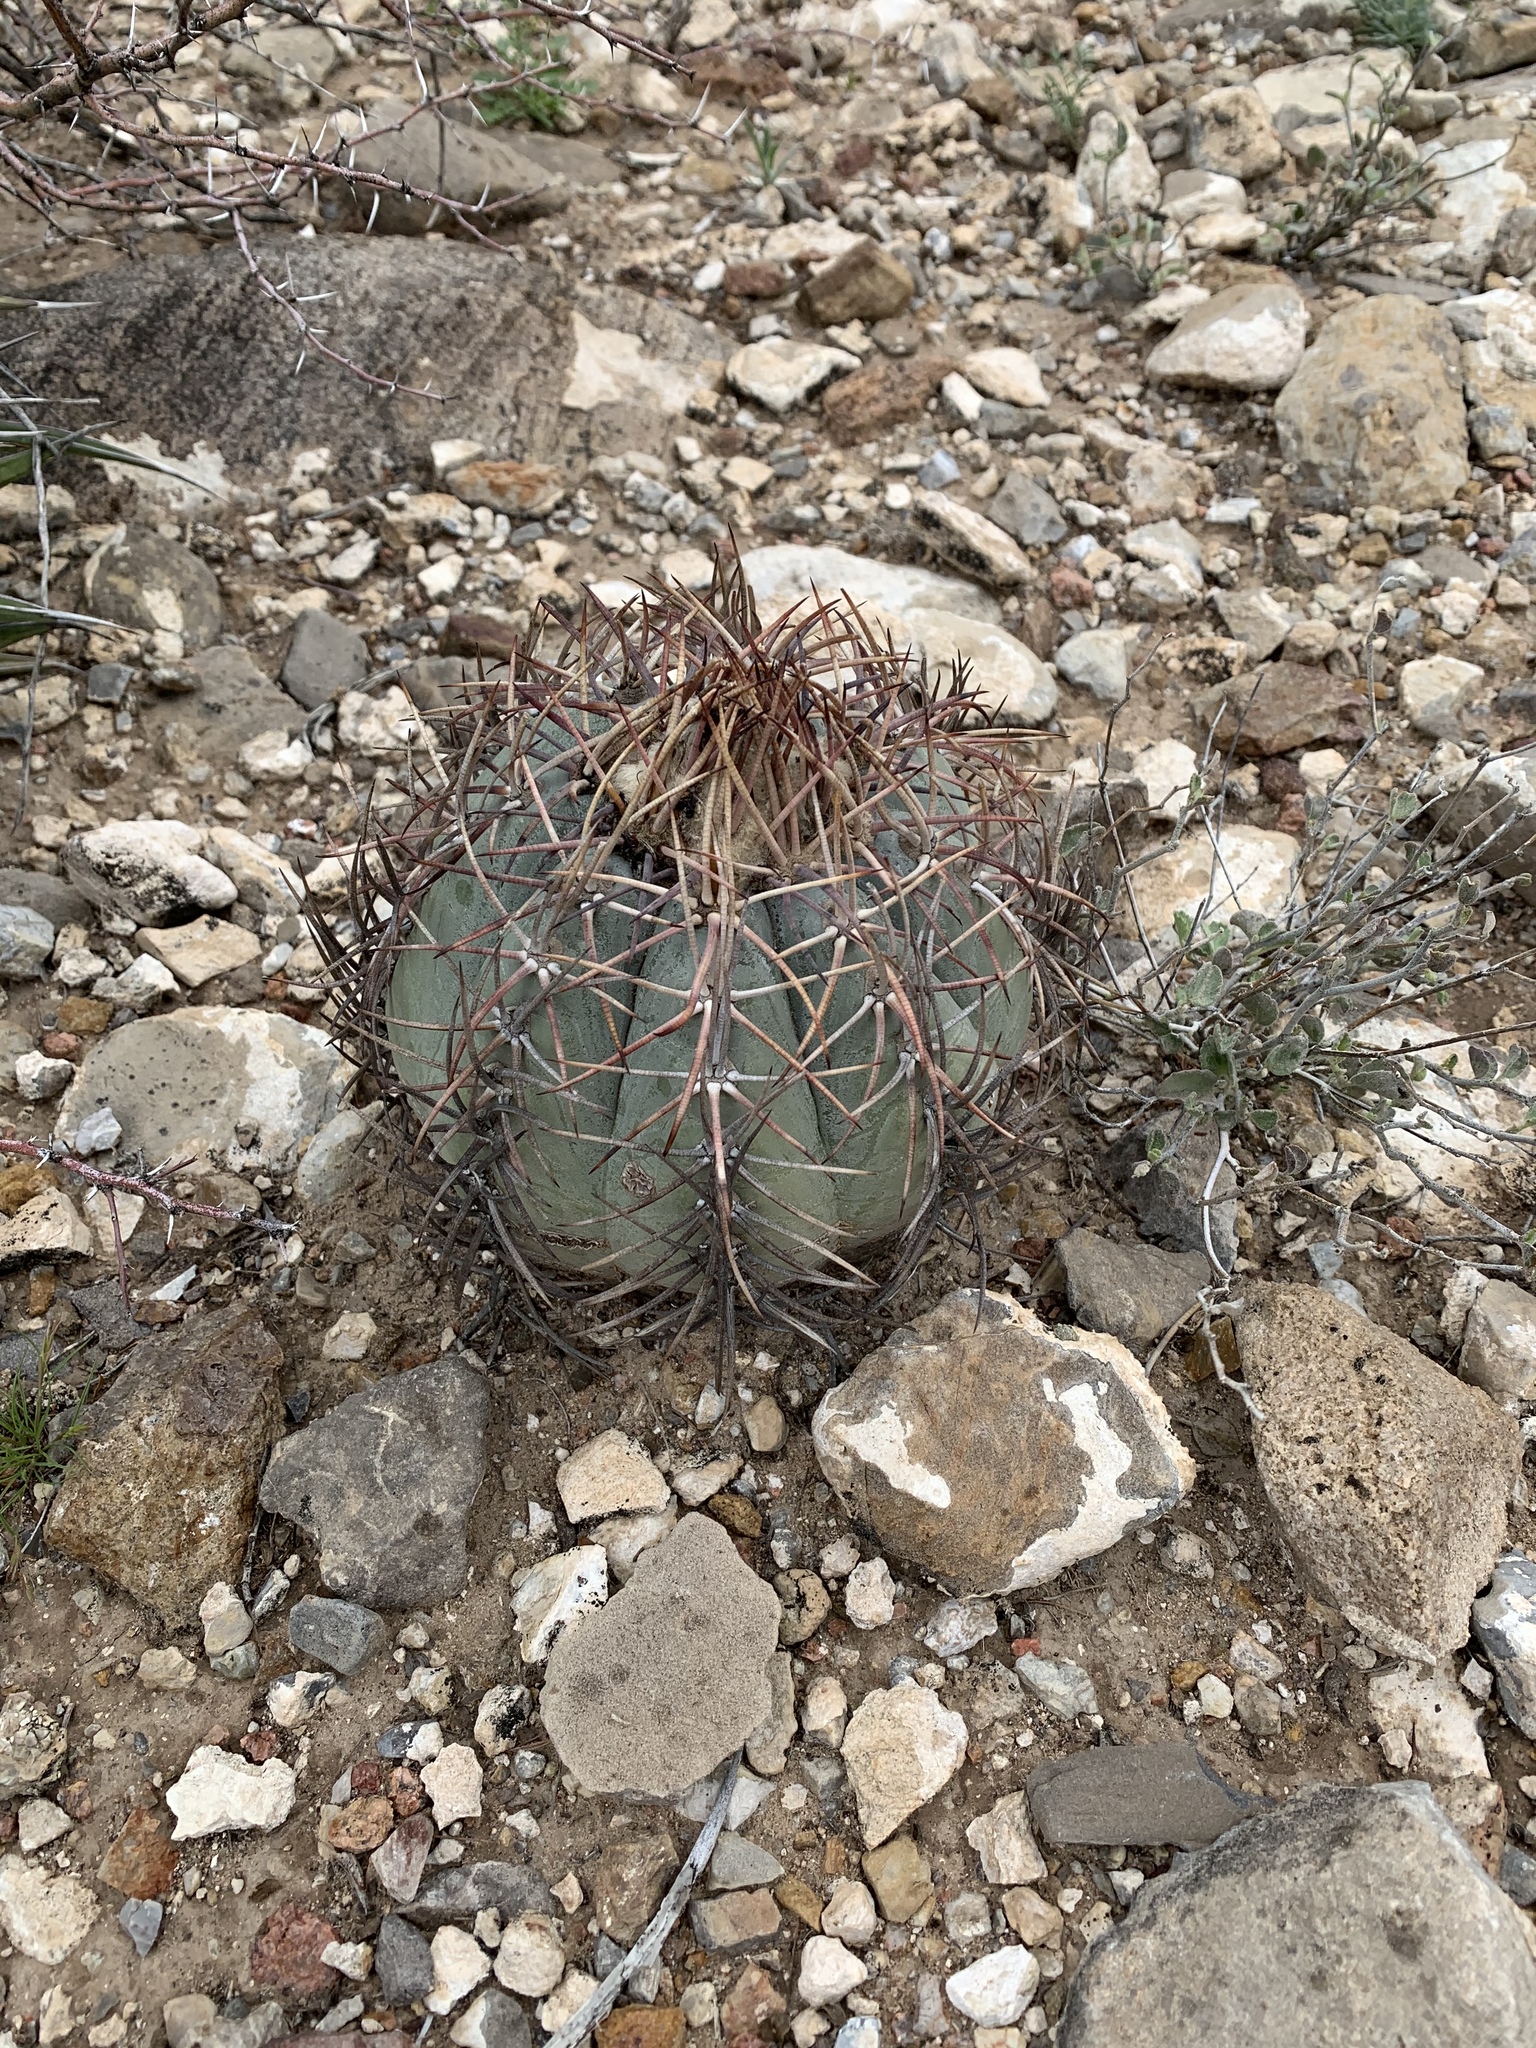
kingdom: Plantae
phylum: Tracheophyta
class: Magnoliopsida
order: Caryophyllales
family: Cactaceae
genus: Echinocactus
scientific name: Echinocactus horizonthalonius
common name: Devilshead
